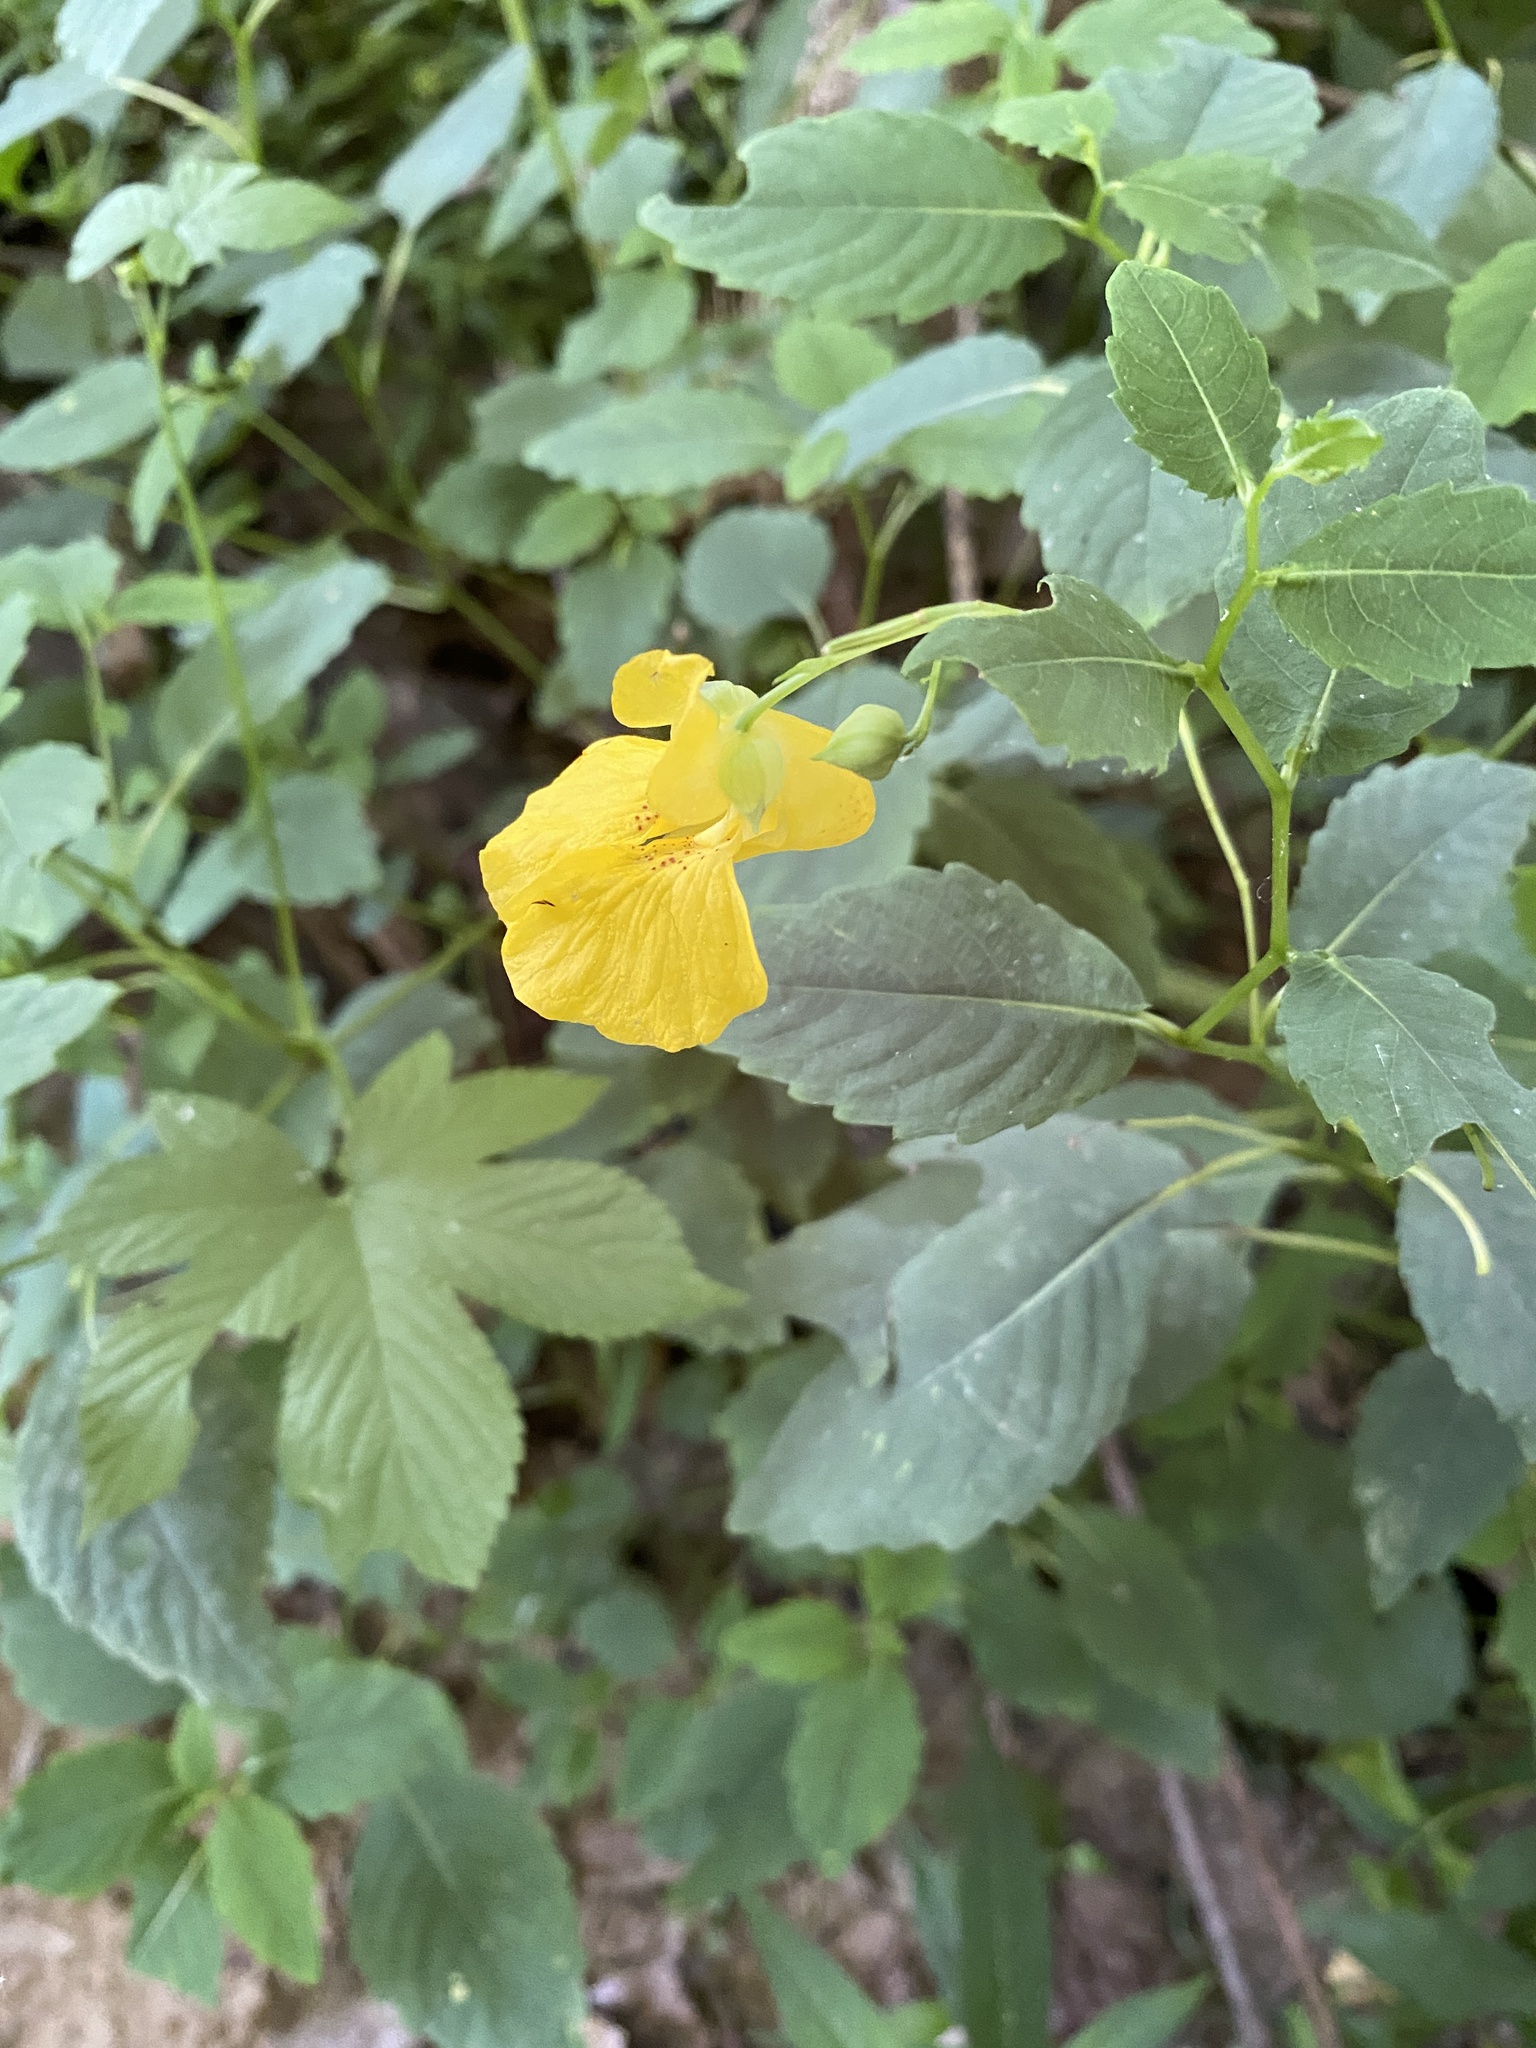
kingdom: Plantae
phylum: Tracheophyta
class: Magnoliopsida
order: Ericales
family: Balsaminaceae
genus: Impatiens
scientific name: Impatiens pallida
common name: Pale snapweed
